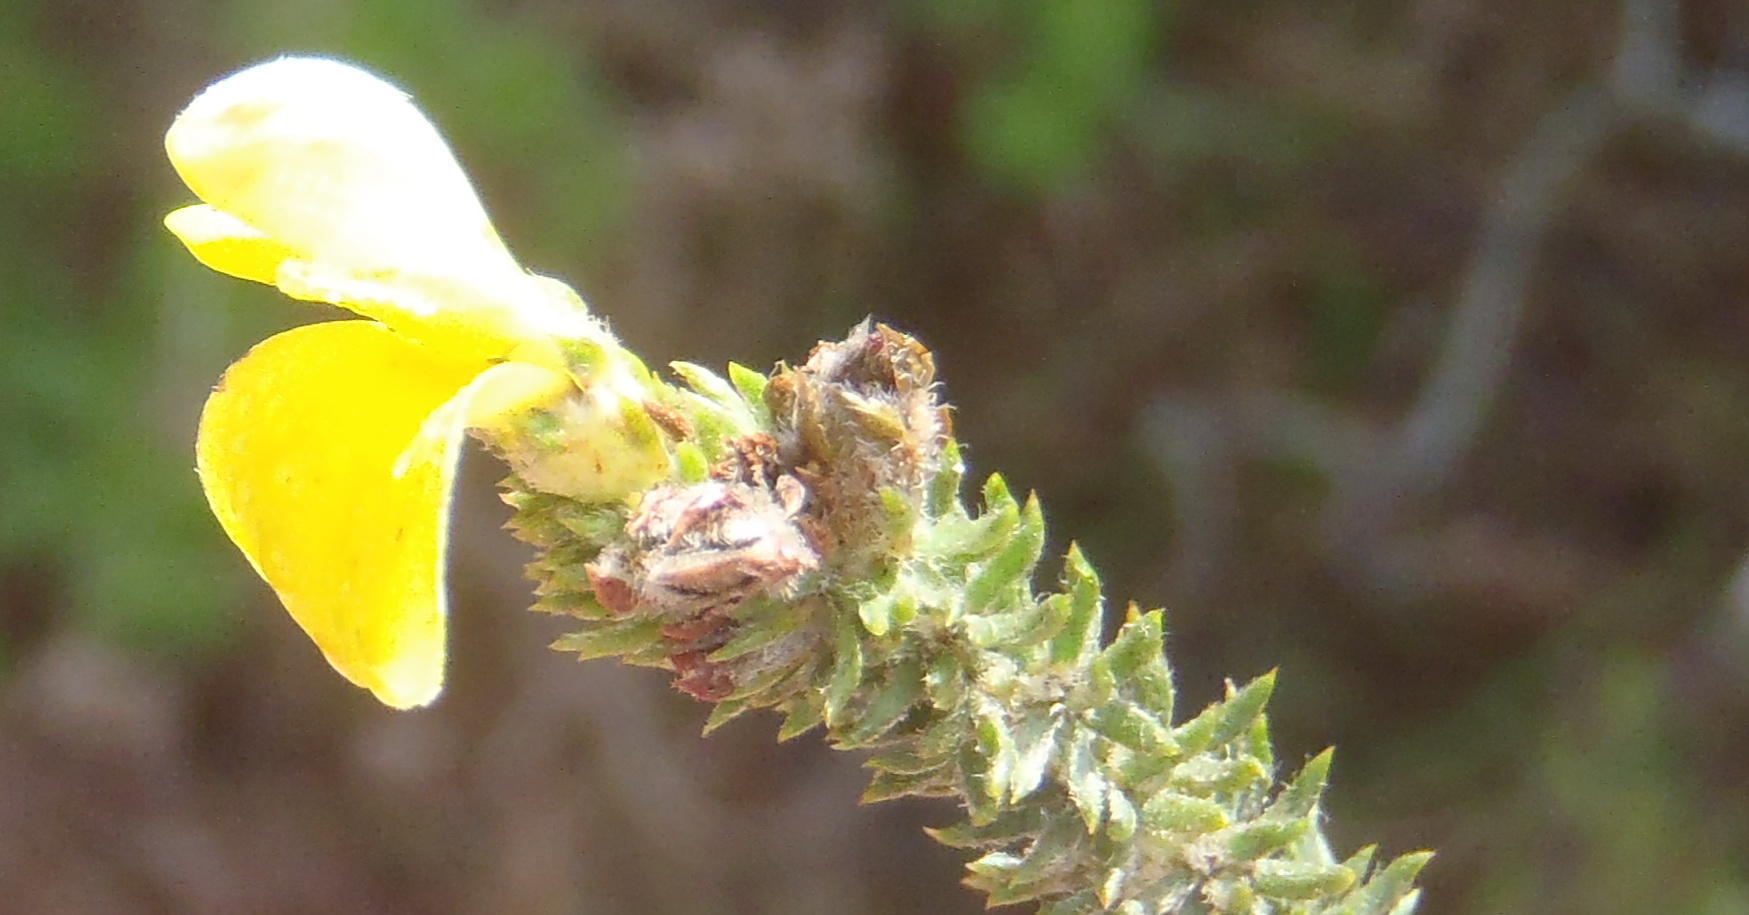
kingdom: Plantae
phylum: Tracheophyta
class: Magnoliopsida
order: Fabales
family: Fabaceae
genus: Aspalathus
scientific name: Aspalathus opaca
